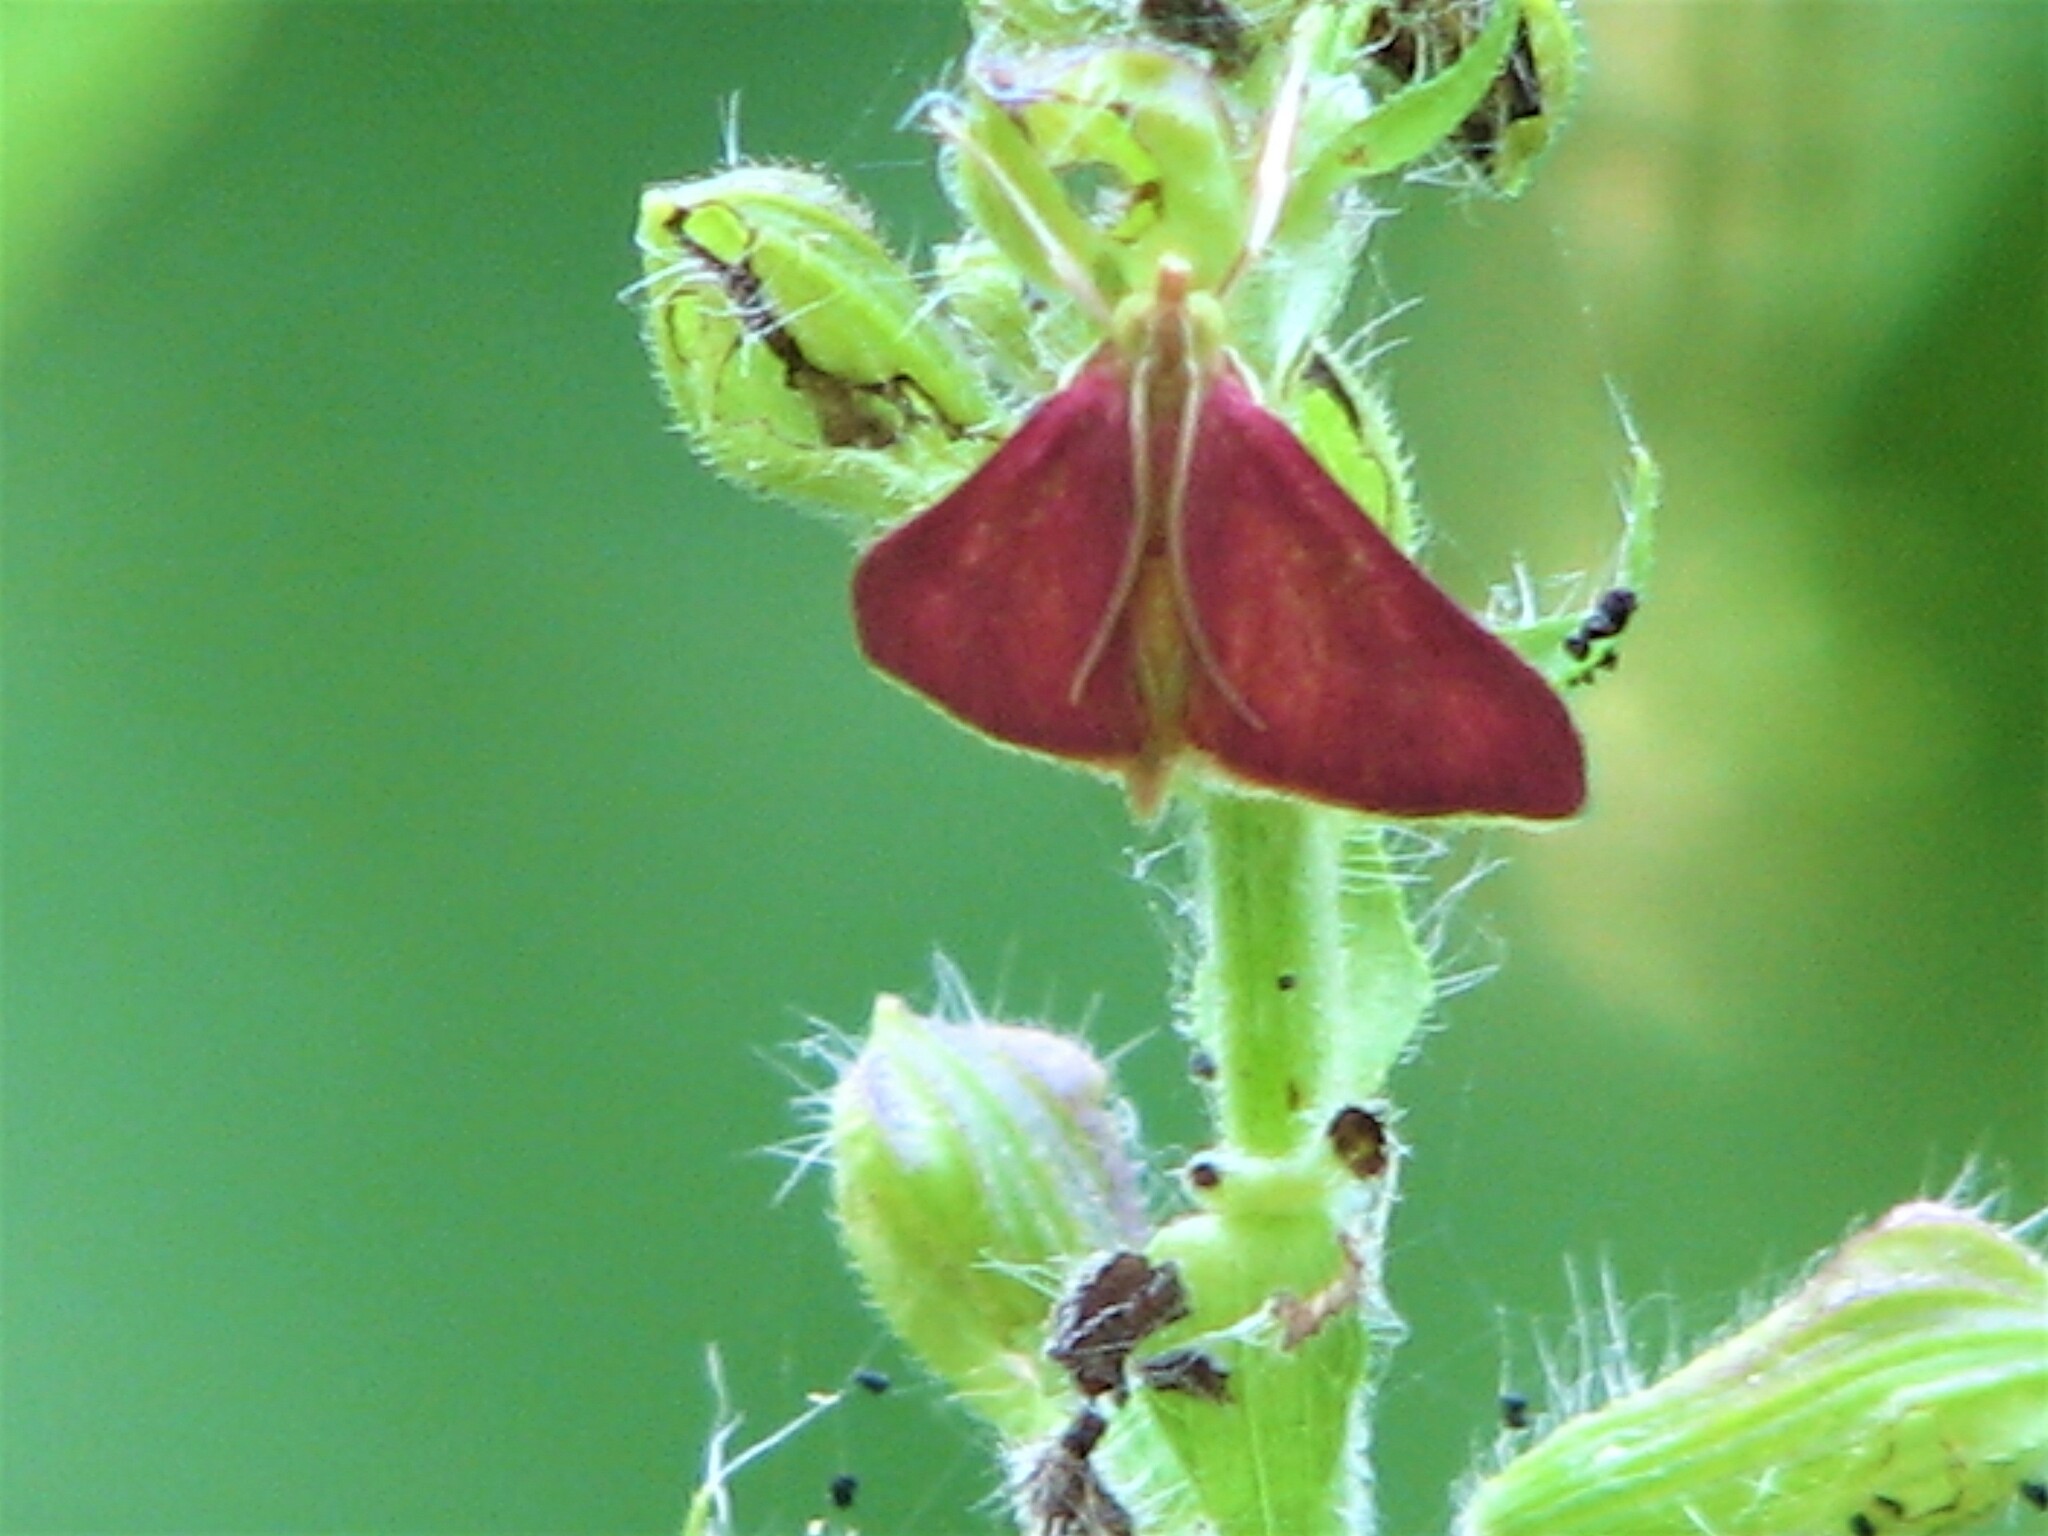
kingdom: Animalia
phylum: Arthropoda
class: Insecta
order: Lepidoptera
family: Crambidae
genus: Pyrausta
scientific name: Pyrausta inornatalis
